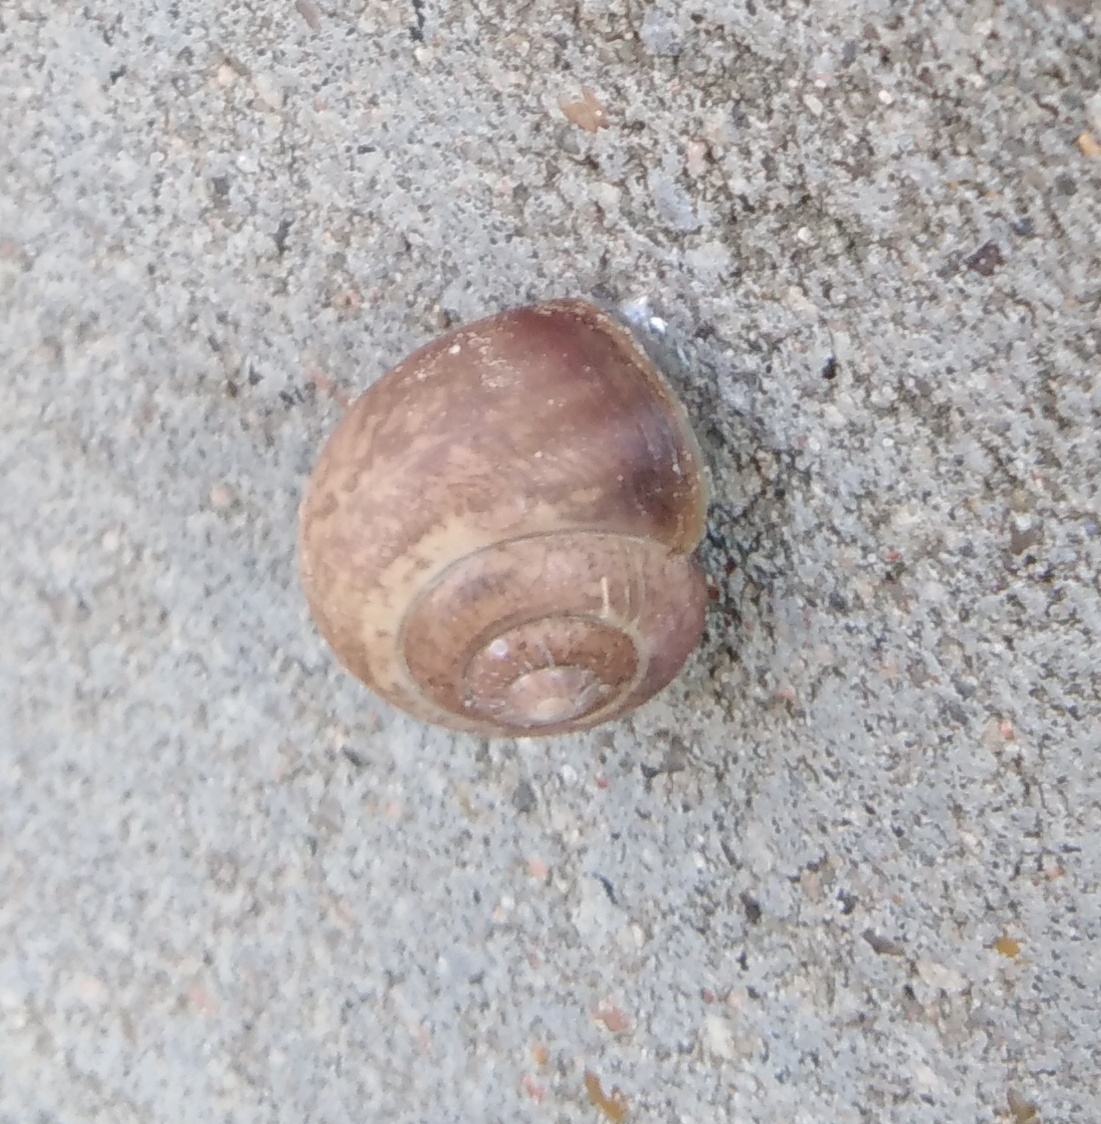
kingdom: Animalia
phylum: Mollusca
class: Gastropoda
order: Stylommatophora
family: Camaenidae
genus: Fruticicola
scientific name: Fruticicola fruticum
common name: Bush snail
